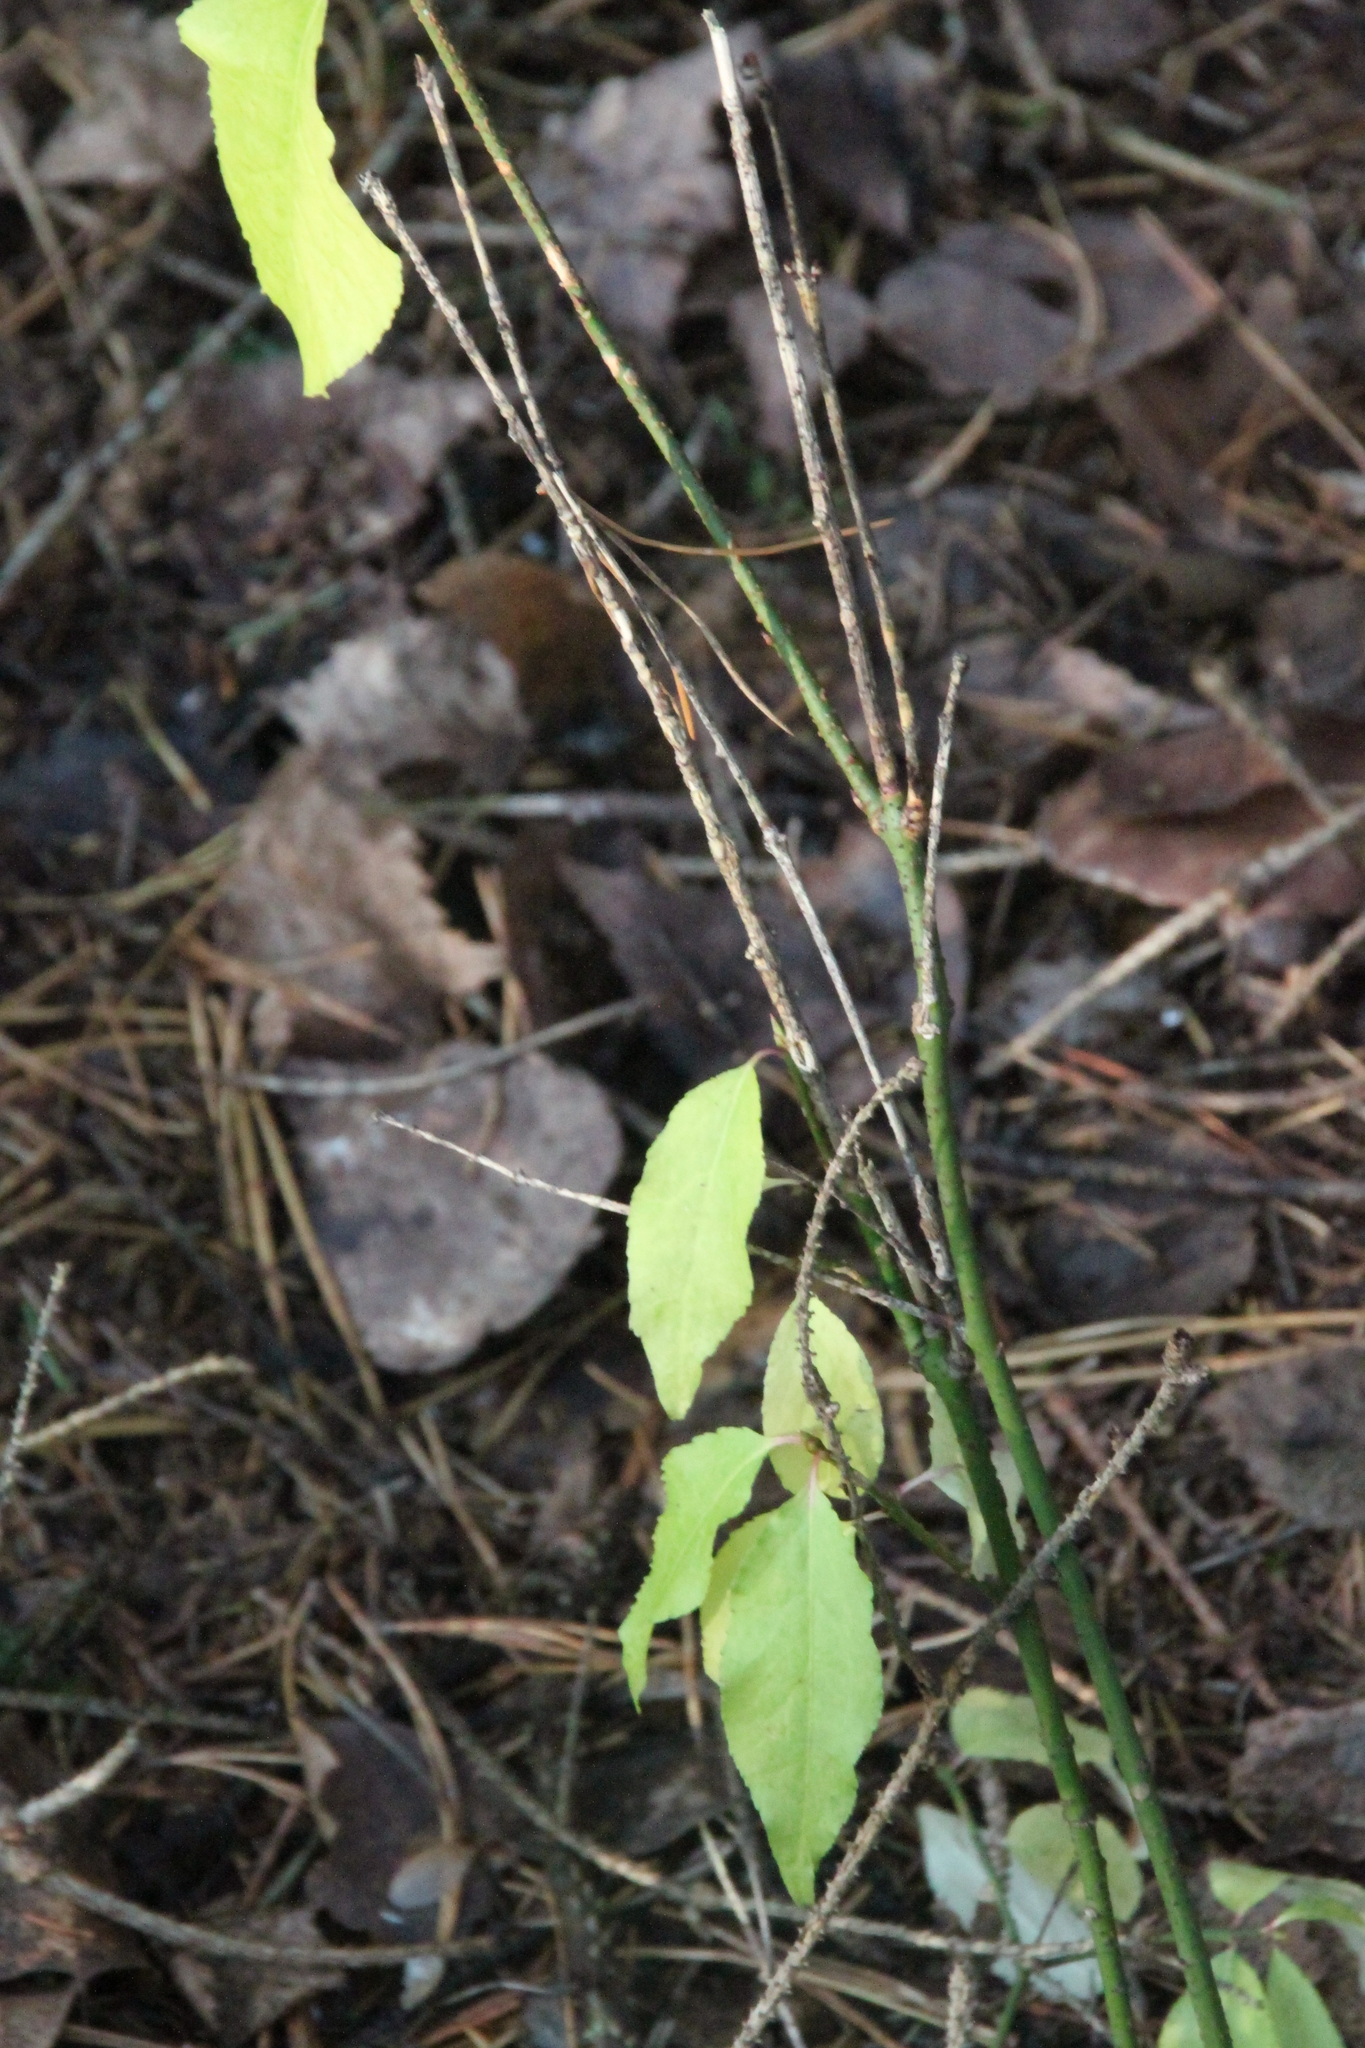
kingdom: Plantae
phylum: Tracheophyta
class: Magnoliopsida
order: Celastrales
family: Celastraceae
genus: Euonymus
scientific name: Euonymus verrucosus
